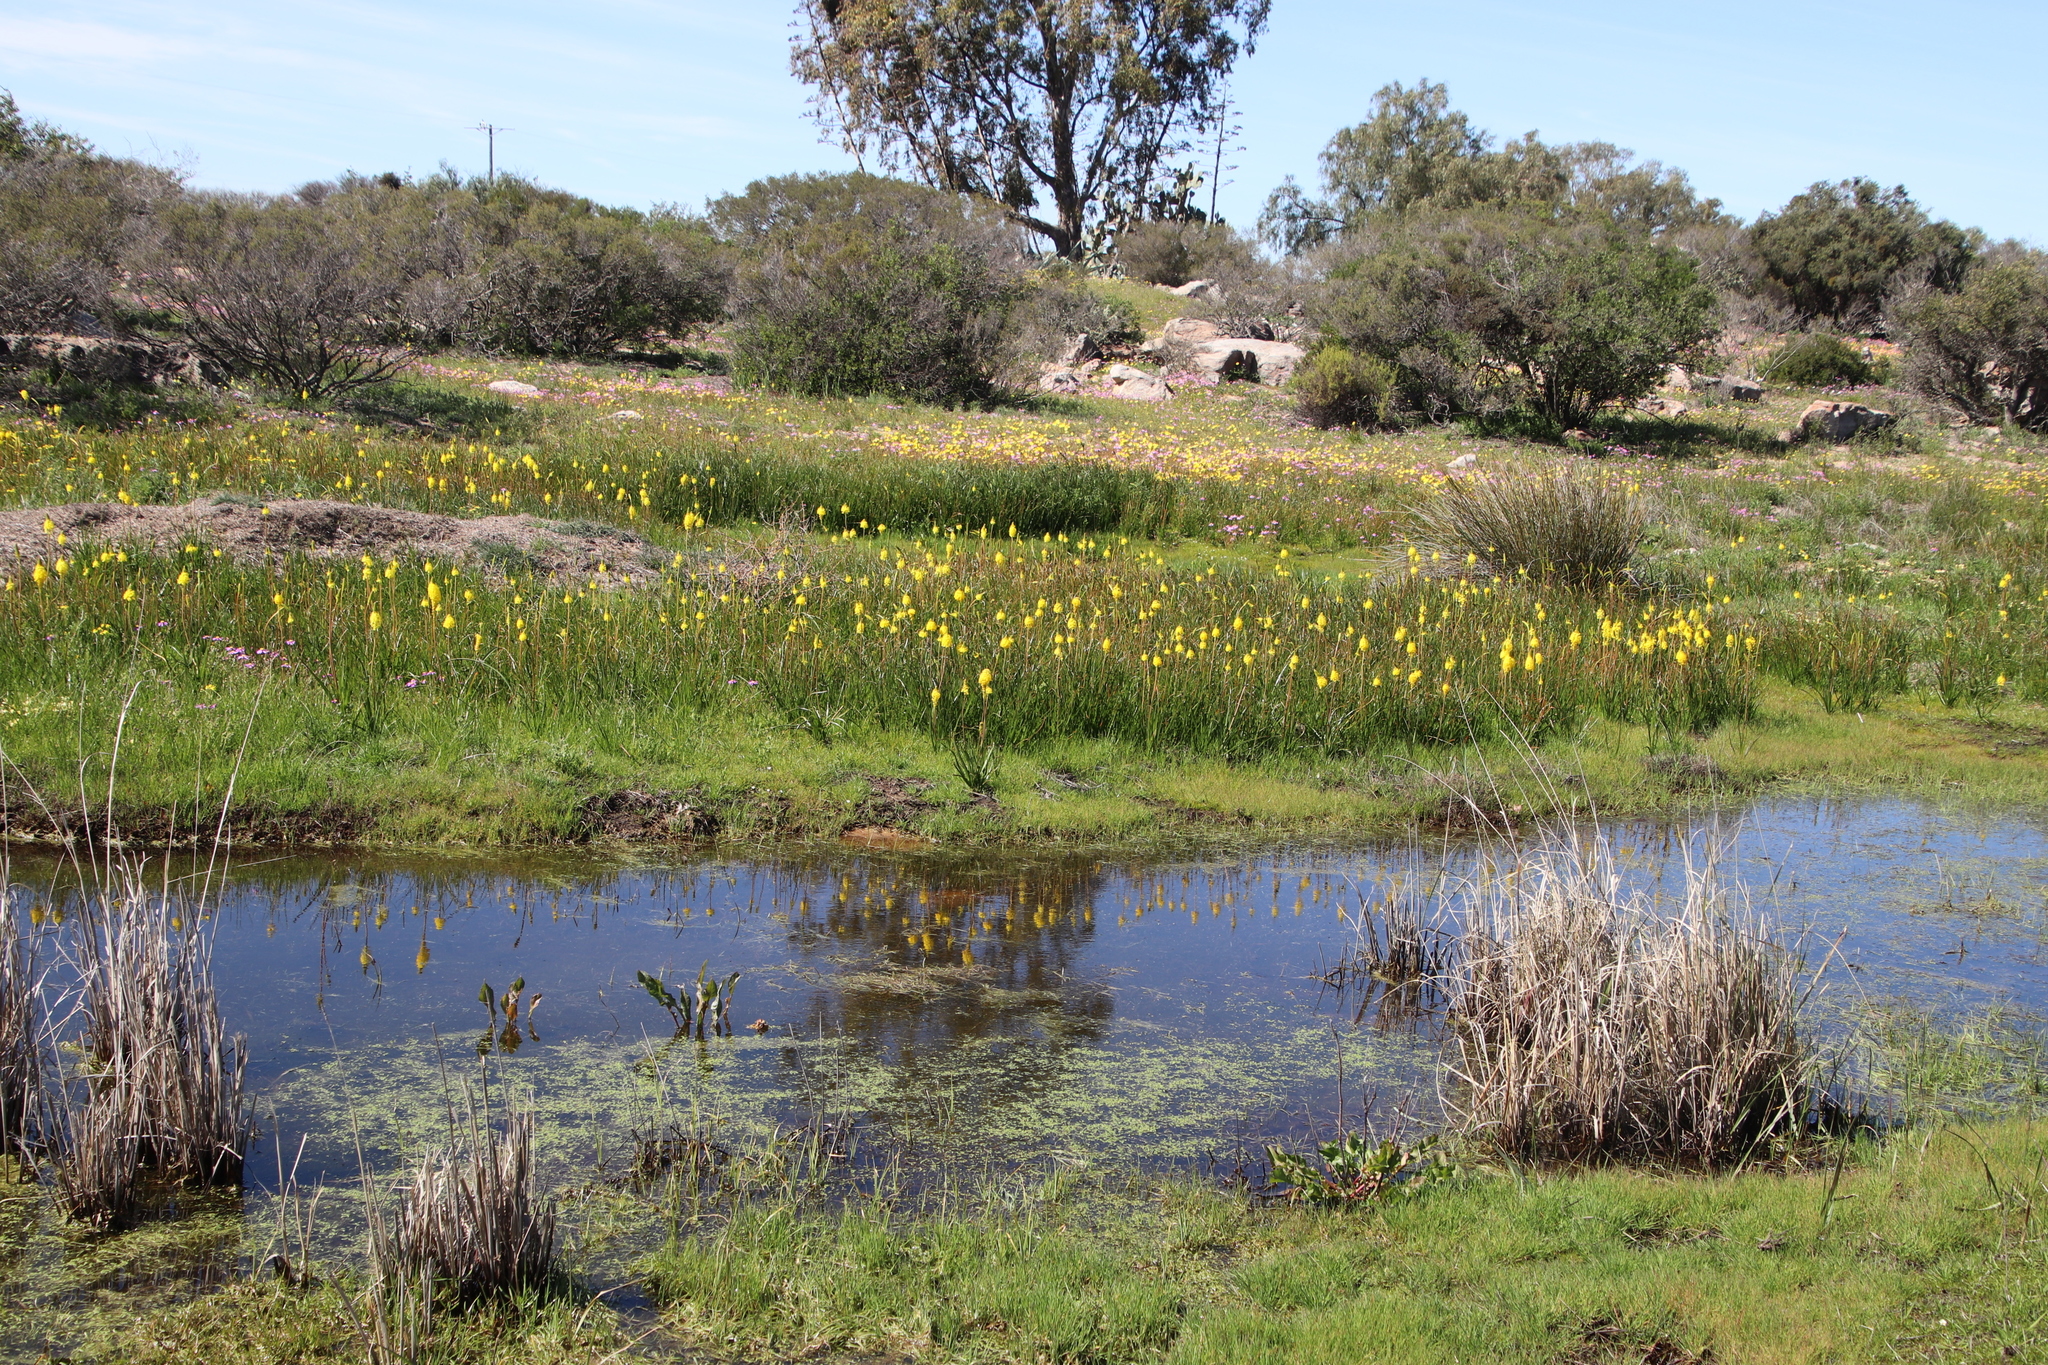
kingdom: Plantae
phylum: Tracheophyta
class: Liliopsida
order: Asparagales
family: Asphodelaceae
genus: Bulbinella
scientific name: Bulbinella nutans
